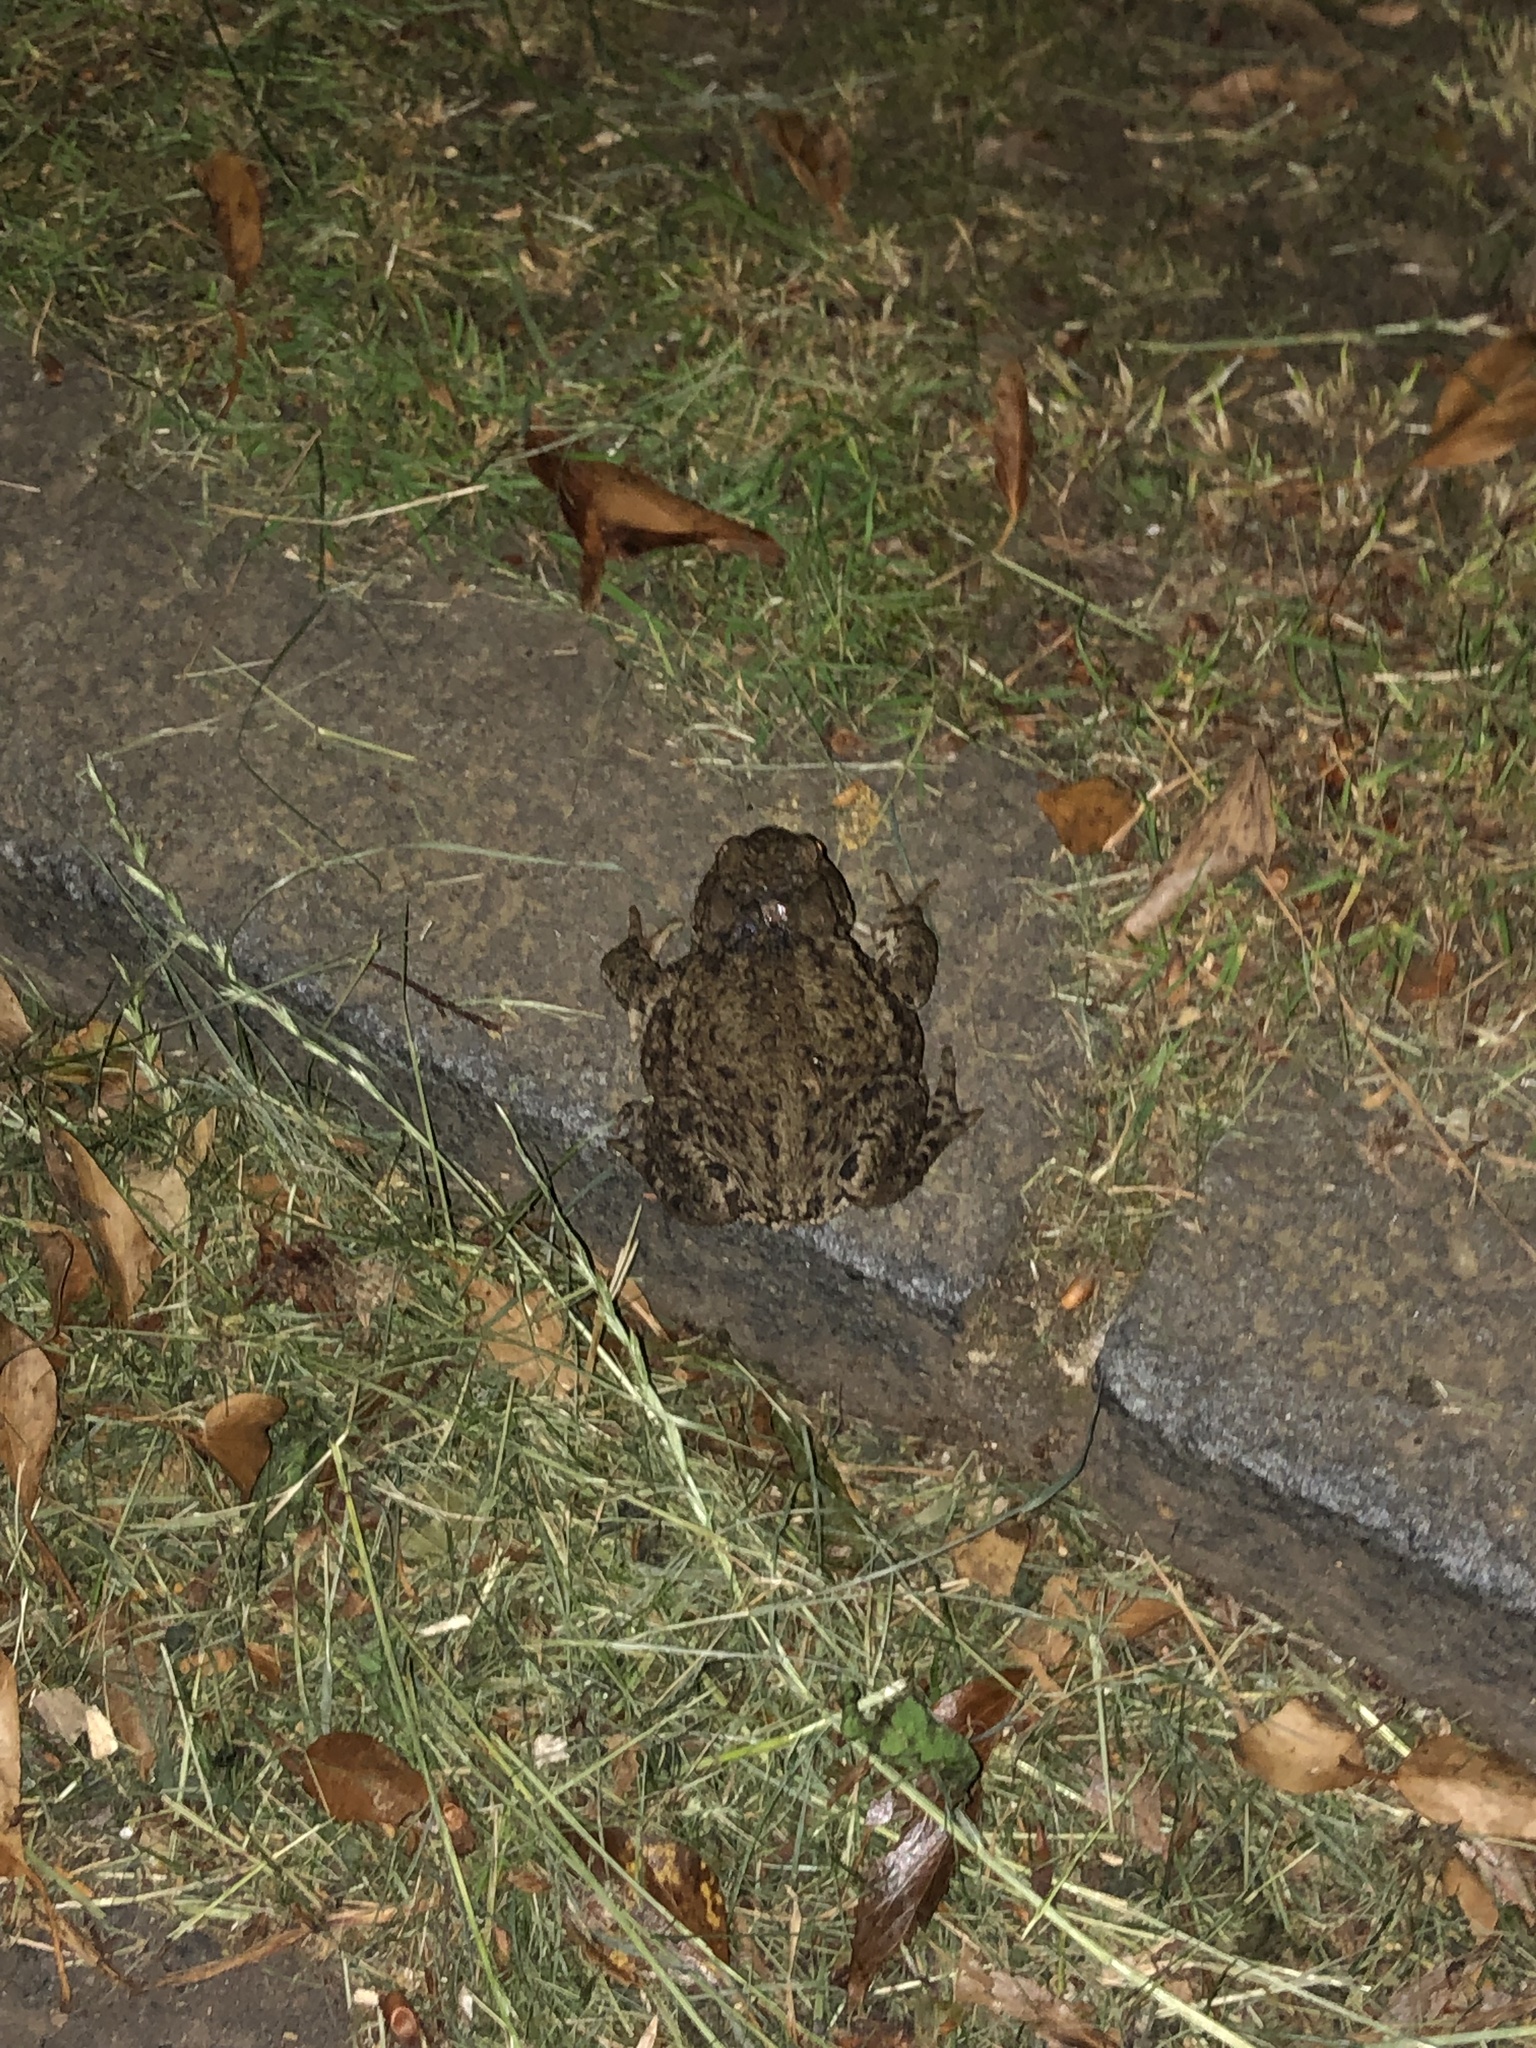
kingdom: Animalia
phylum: Chordata
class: Amphibia
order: Anura
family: Bufonidae
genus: Bufo
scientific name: Bufo bufo
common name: Common toad
